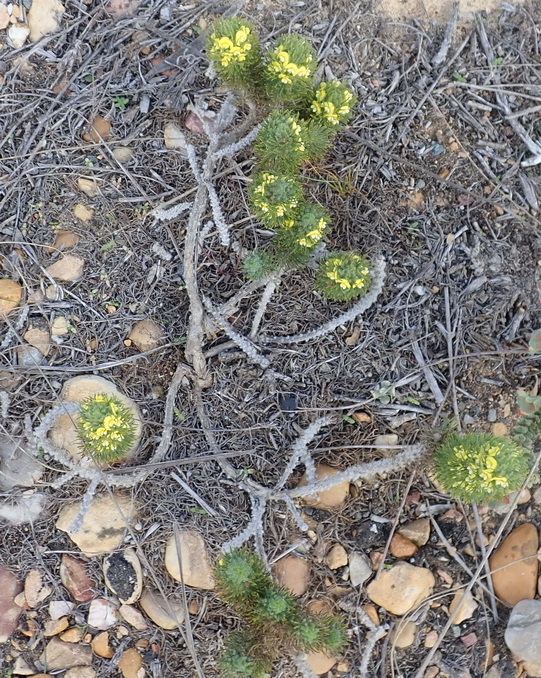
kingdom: Plantae
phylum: Tracheophyta
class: Magnoliopsida
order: Fabales
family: Fabaceae
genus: Aspalathus
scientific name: Aspalathus alopecurus
